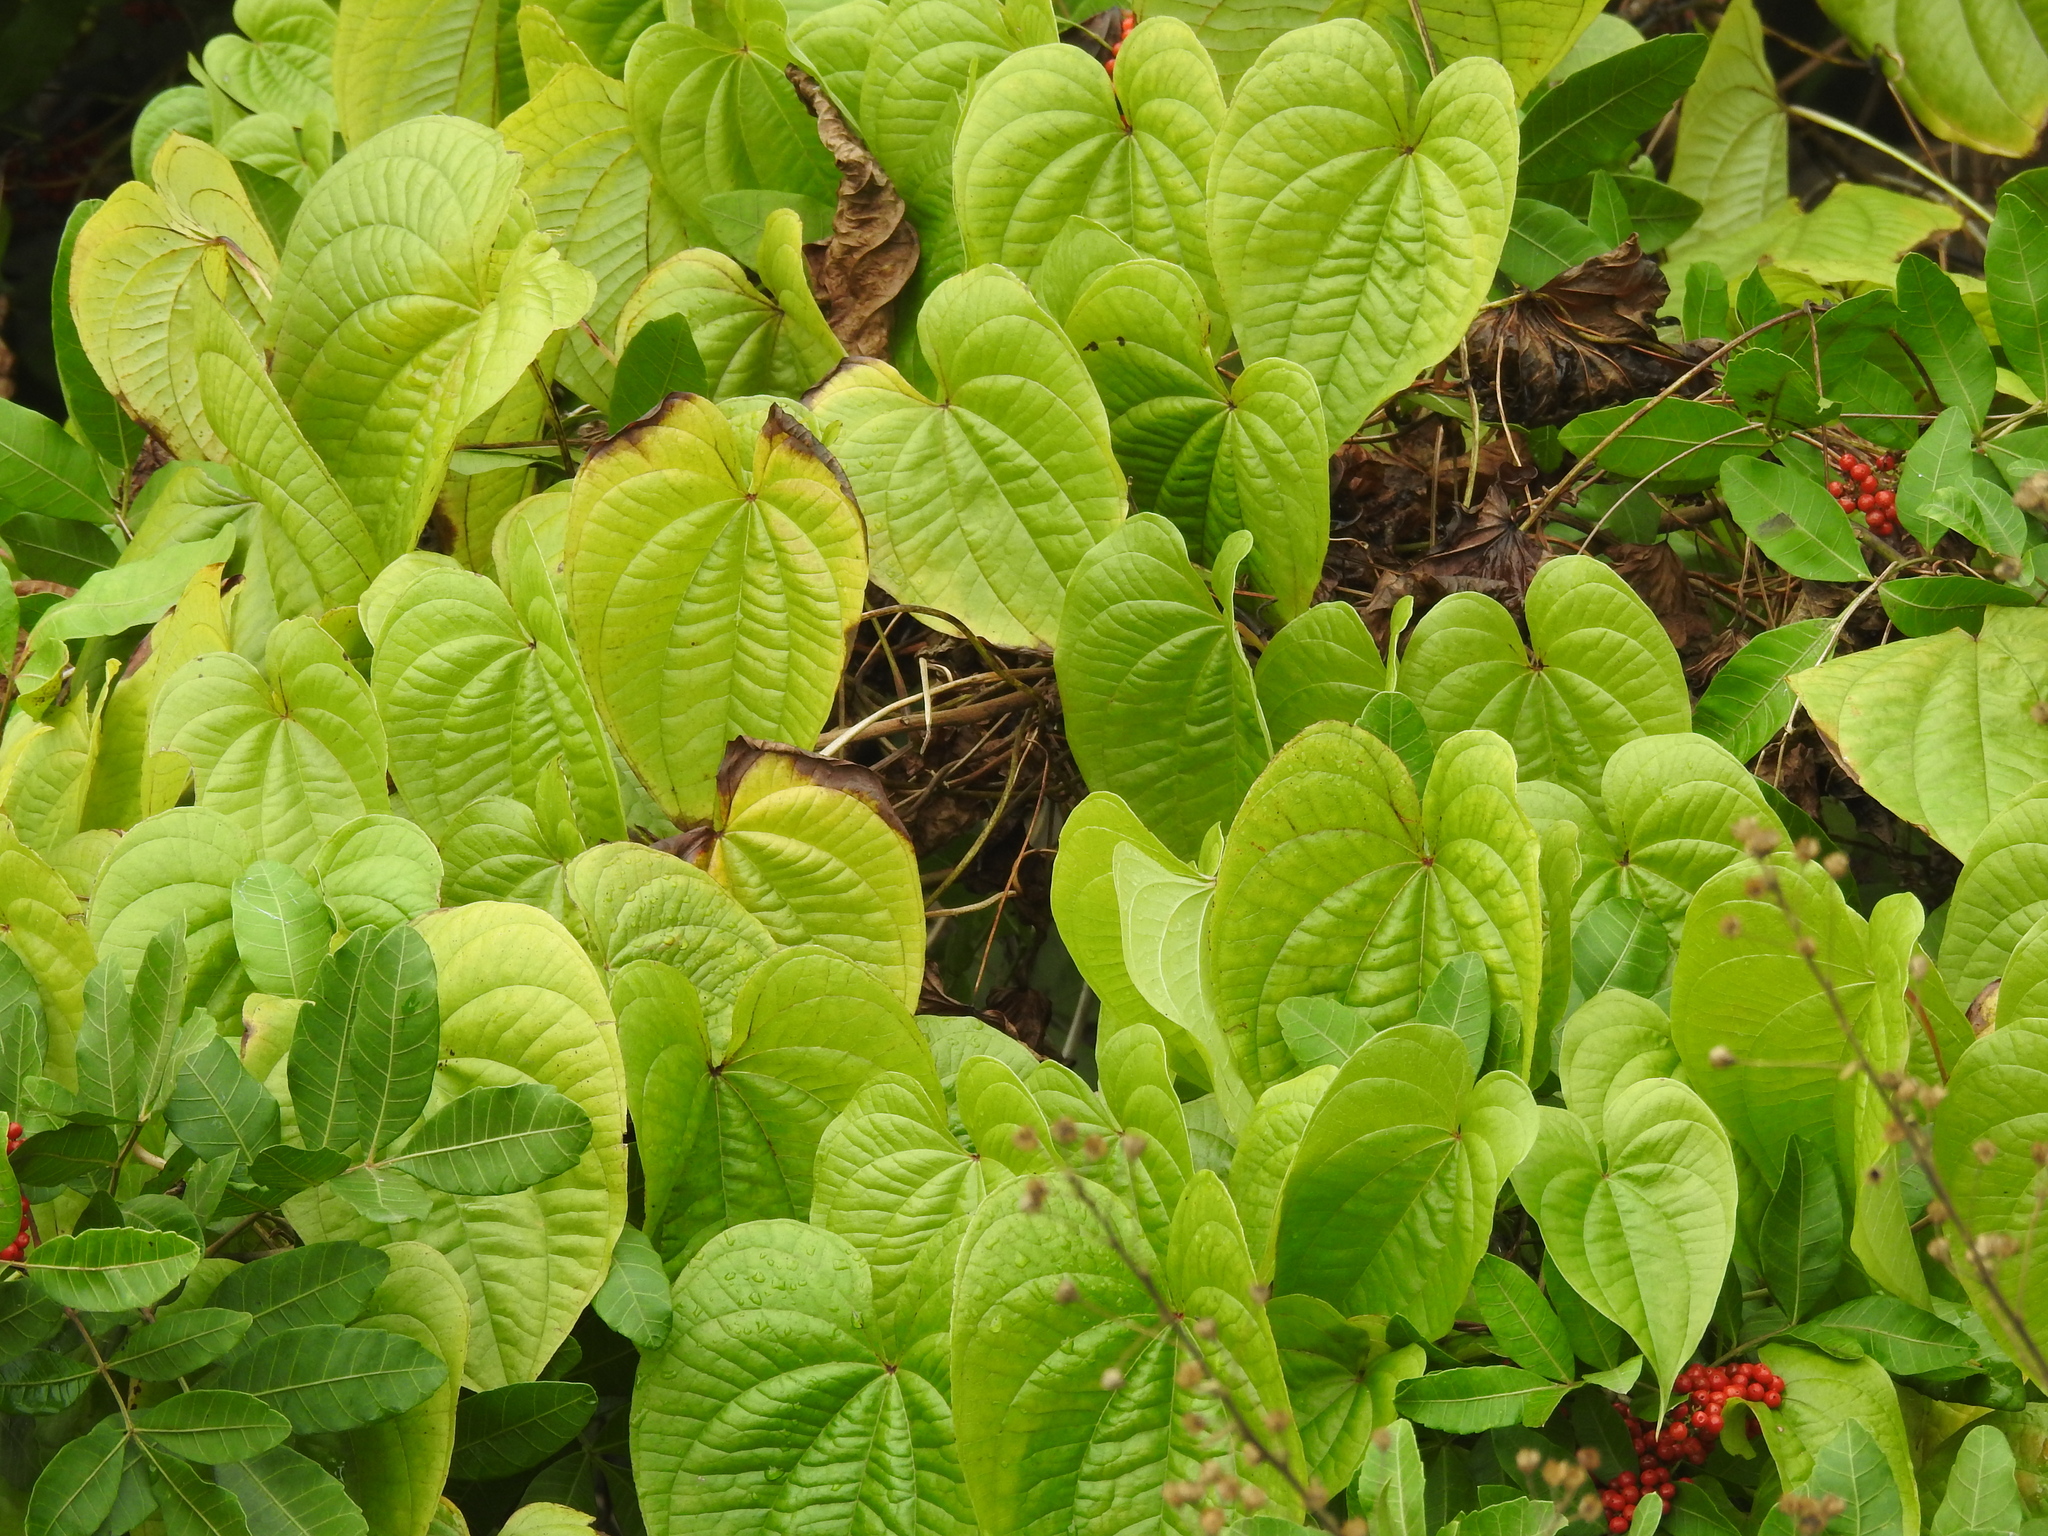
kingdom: Plantae
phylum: Tracheophyta
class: Liliopsida
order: Dioscoreales
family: Dioscoreaceae
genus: Dioscorea
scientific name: Dioscorea bulbifera
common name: Air yam
